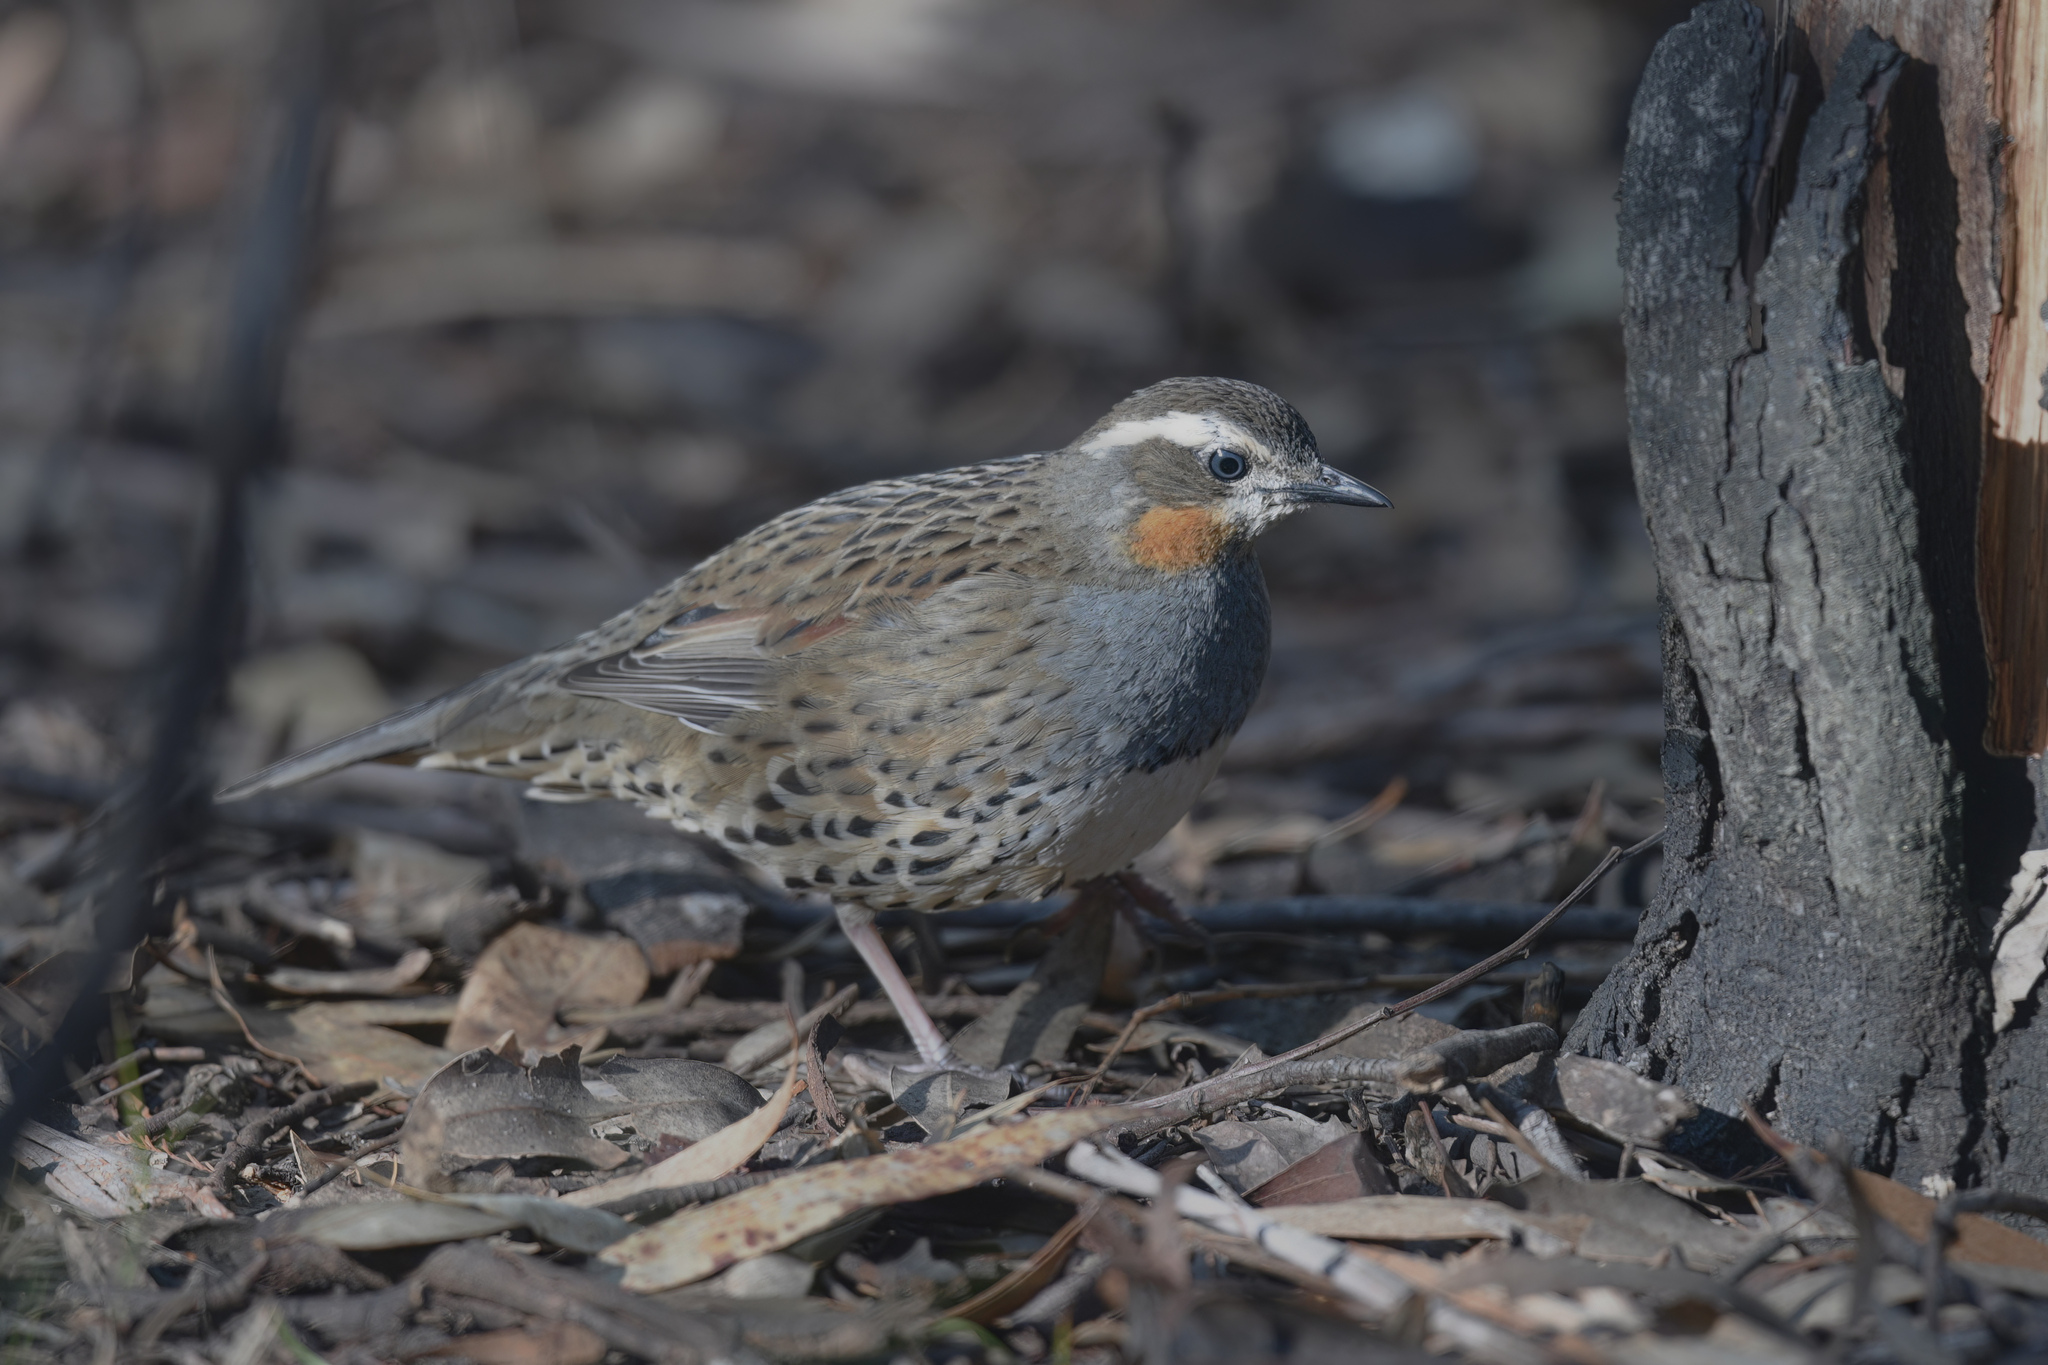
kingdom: Animalia
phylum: Chordata
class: Aves
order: Passeriformes
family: Psophodidae
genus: Cinclosoma
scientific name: Cinclosoma punctatum
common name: Spotted quail-thrush
